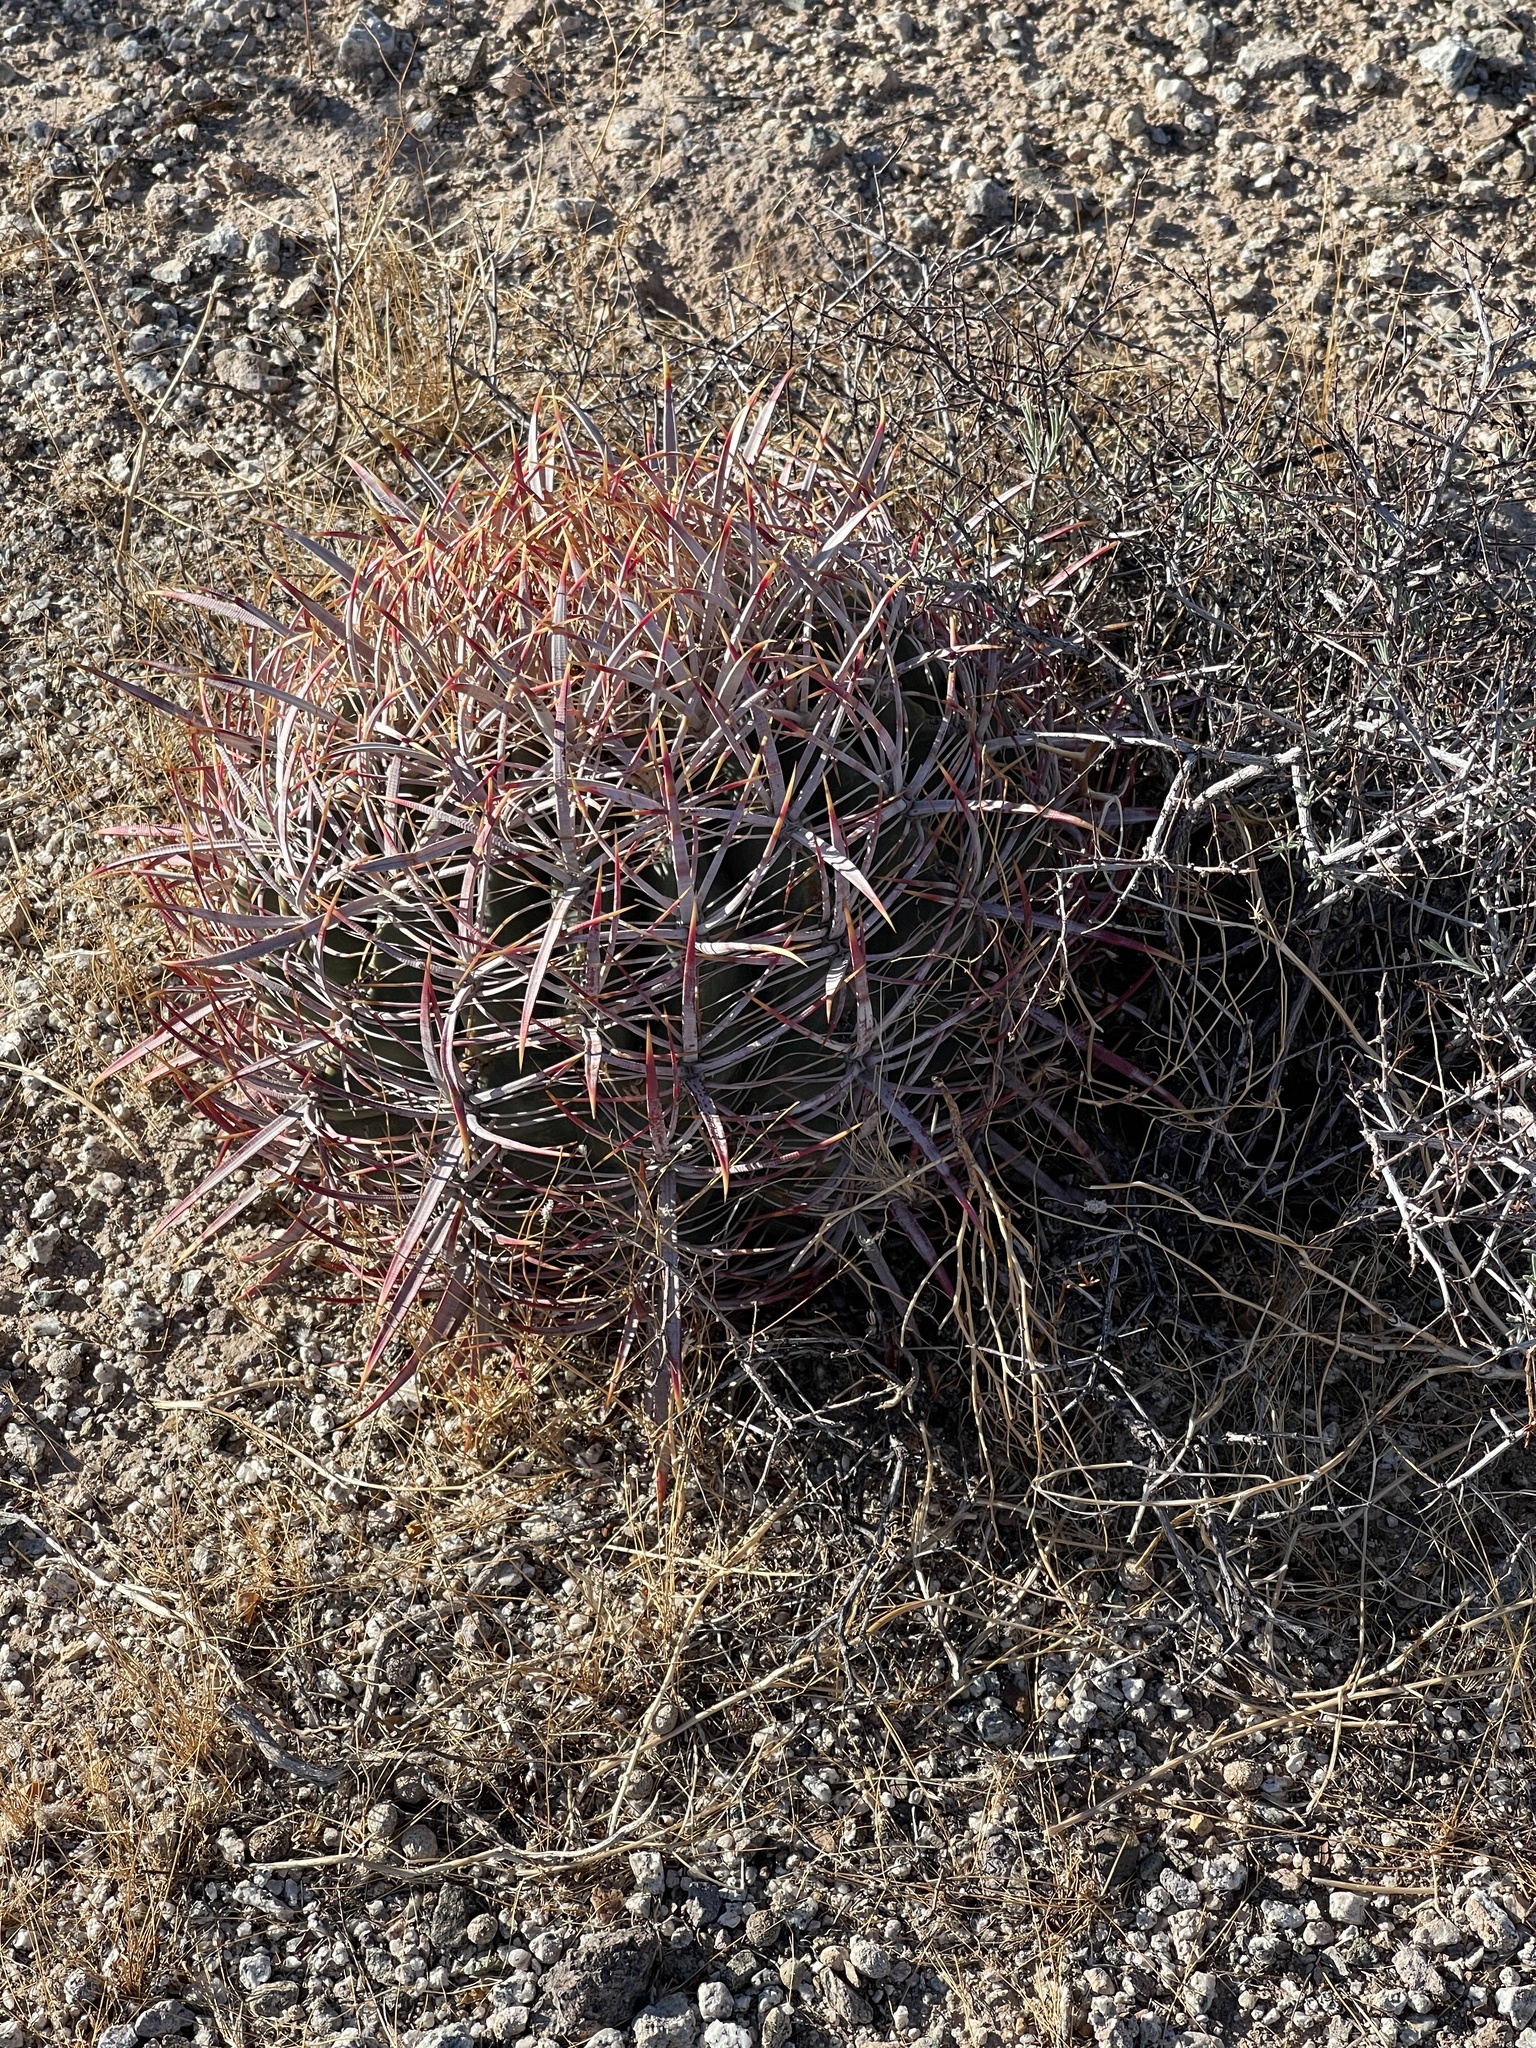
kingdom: Plantae
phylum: Tracheophyta
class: Magnoliopsida
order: Caryophyllales
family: Cactaceae
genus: Ferocactus
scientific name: Ferocactus cylindraceus
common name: California barrel cactus
